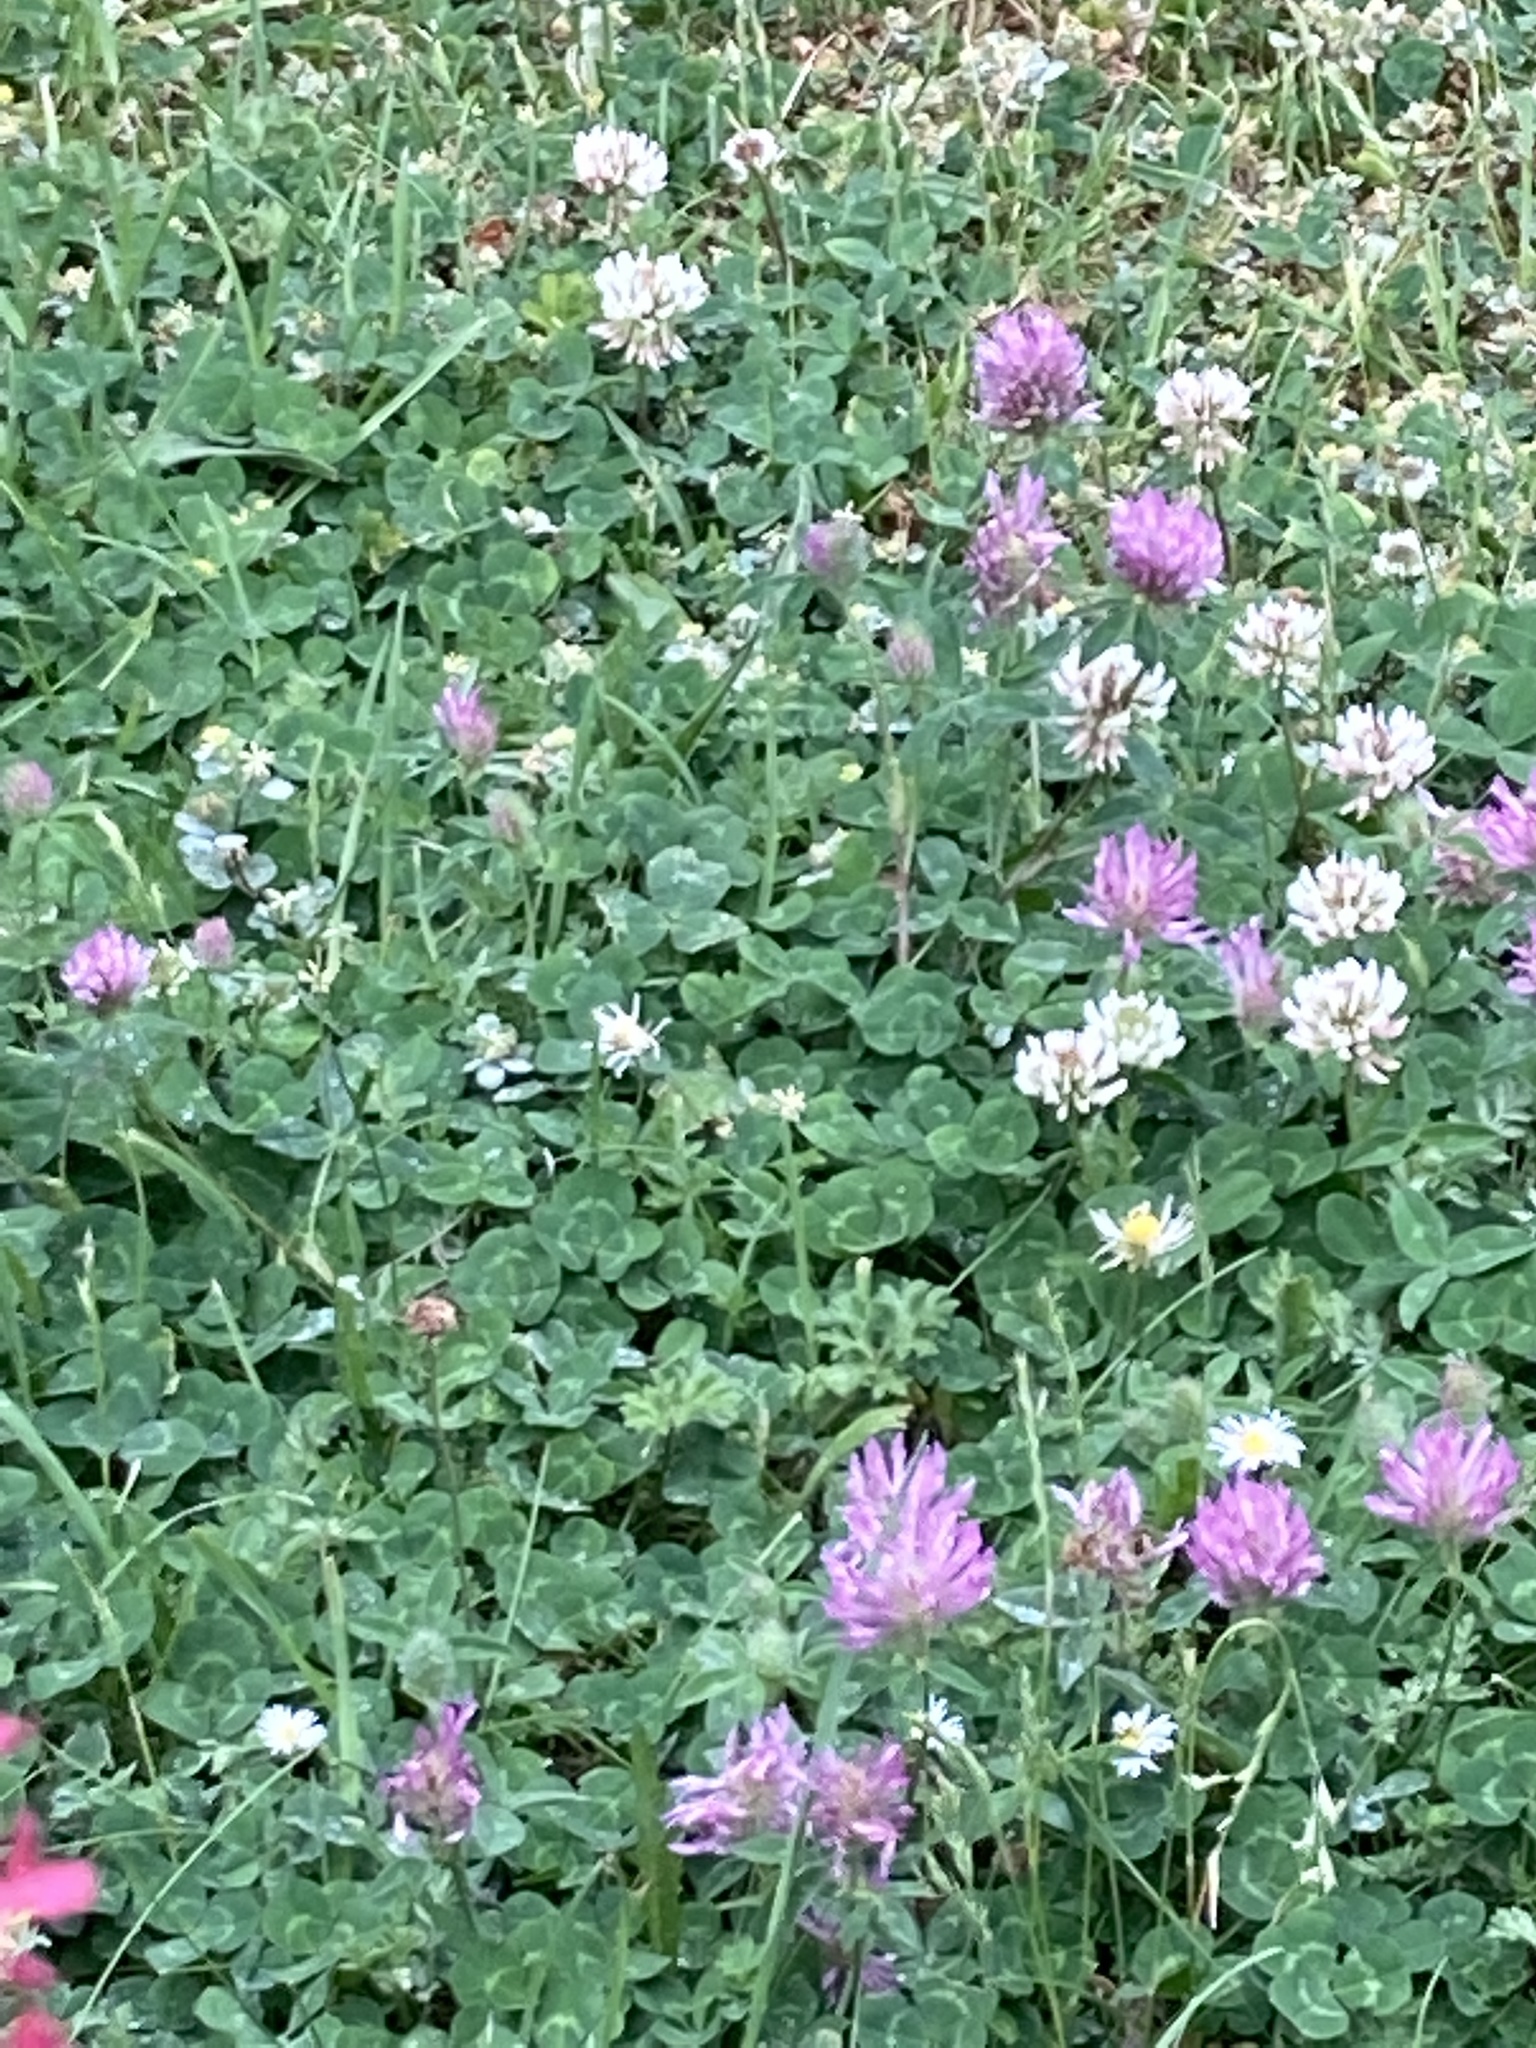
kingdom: Plantae
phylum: Tracheophyta
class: Magnoliopsida
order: Fabales
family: Fabaceae
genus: Trifolium
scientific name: Trifolium pratense
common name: Red clover
